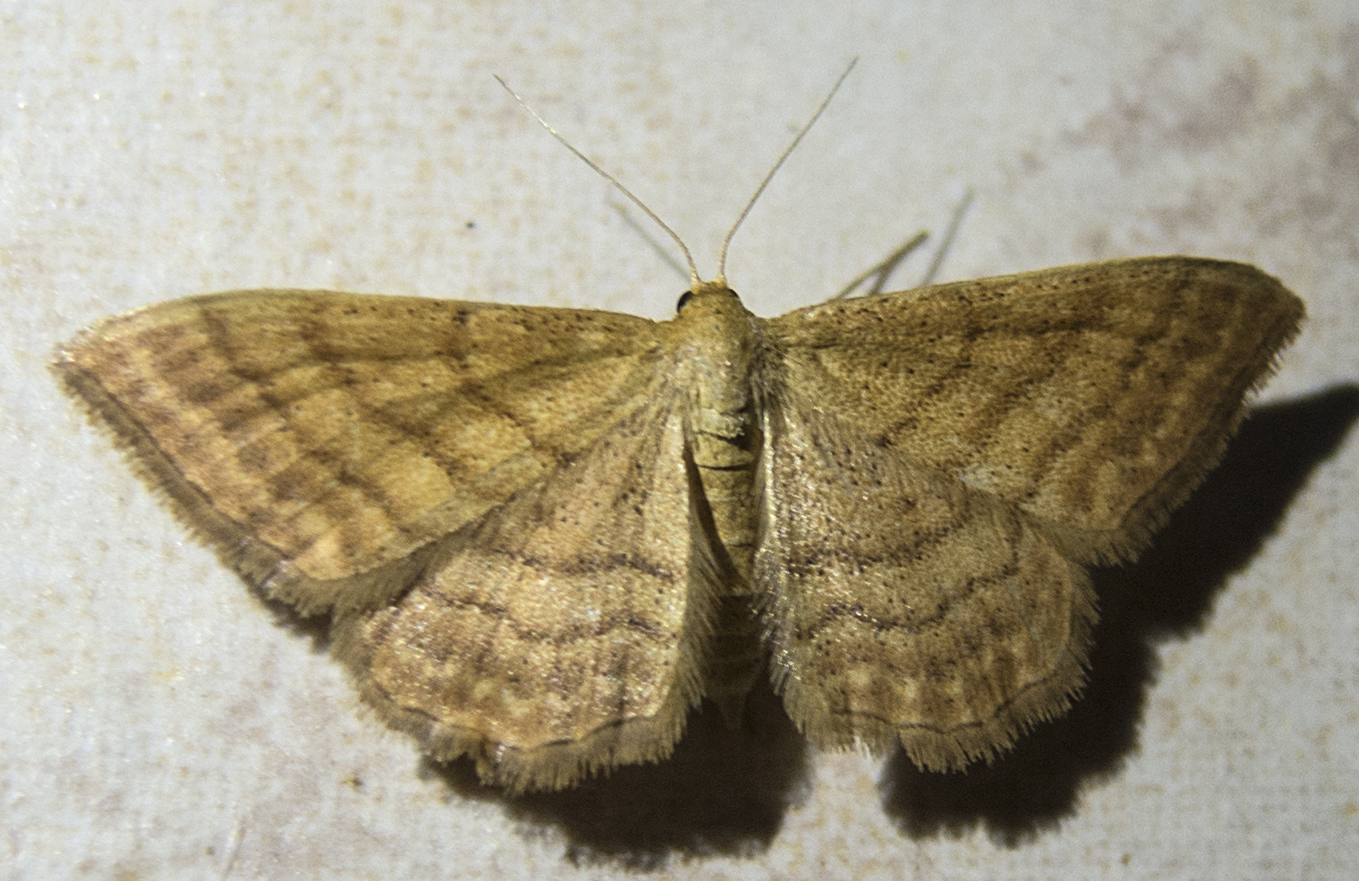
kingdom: Animalia
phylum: Arthropoda
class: Insecta
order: Lepidoptera
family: Geometridae
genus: Idaea
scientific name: Idaea ochrata
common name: Bright wave
